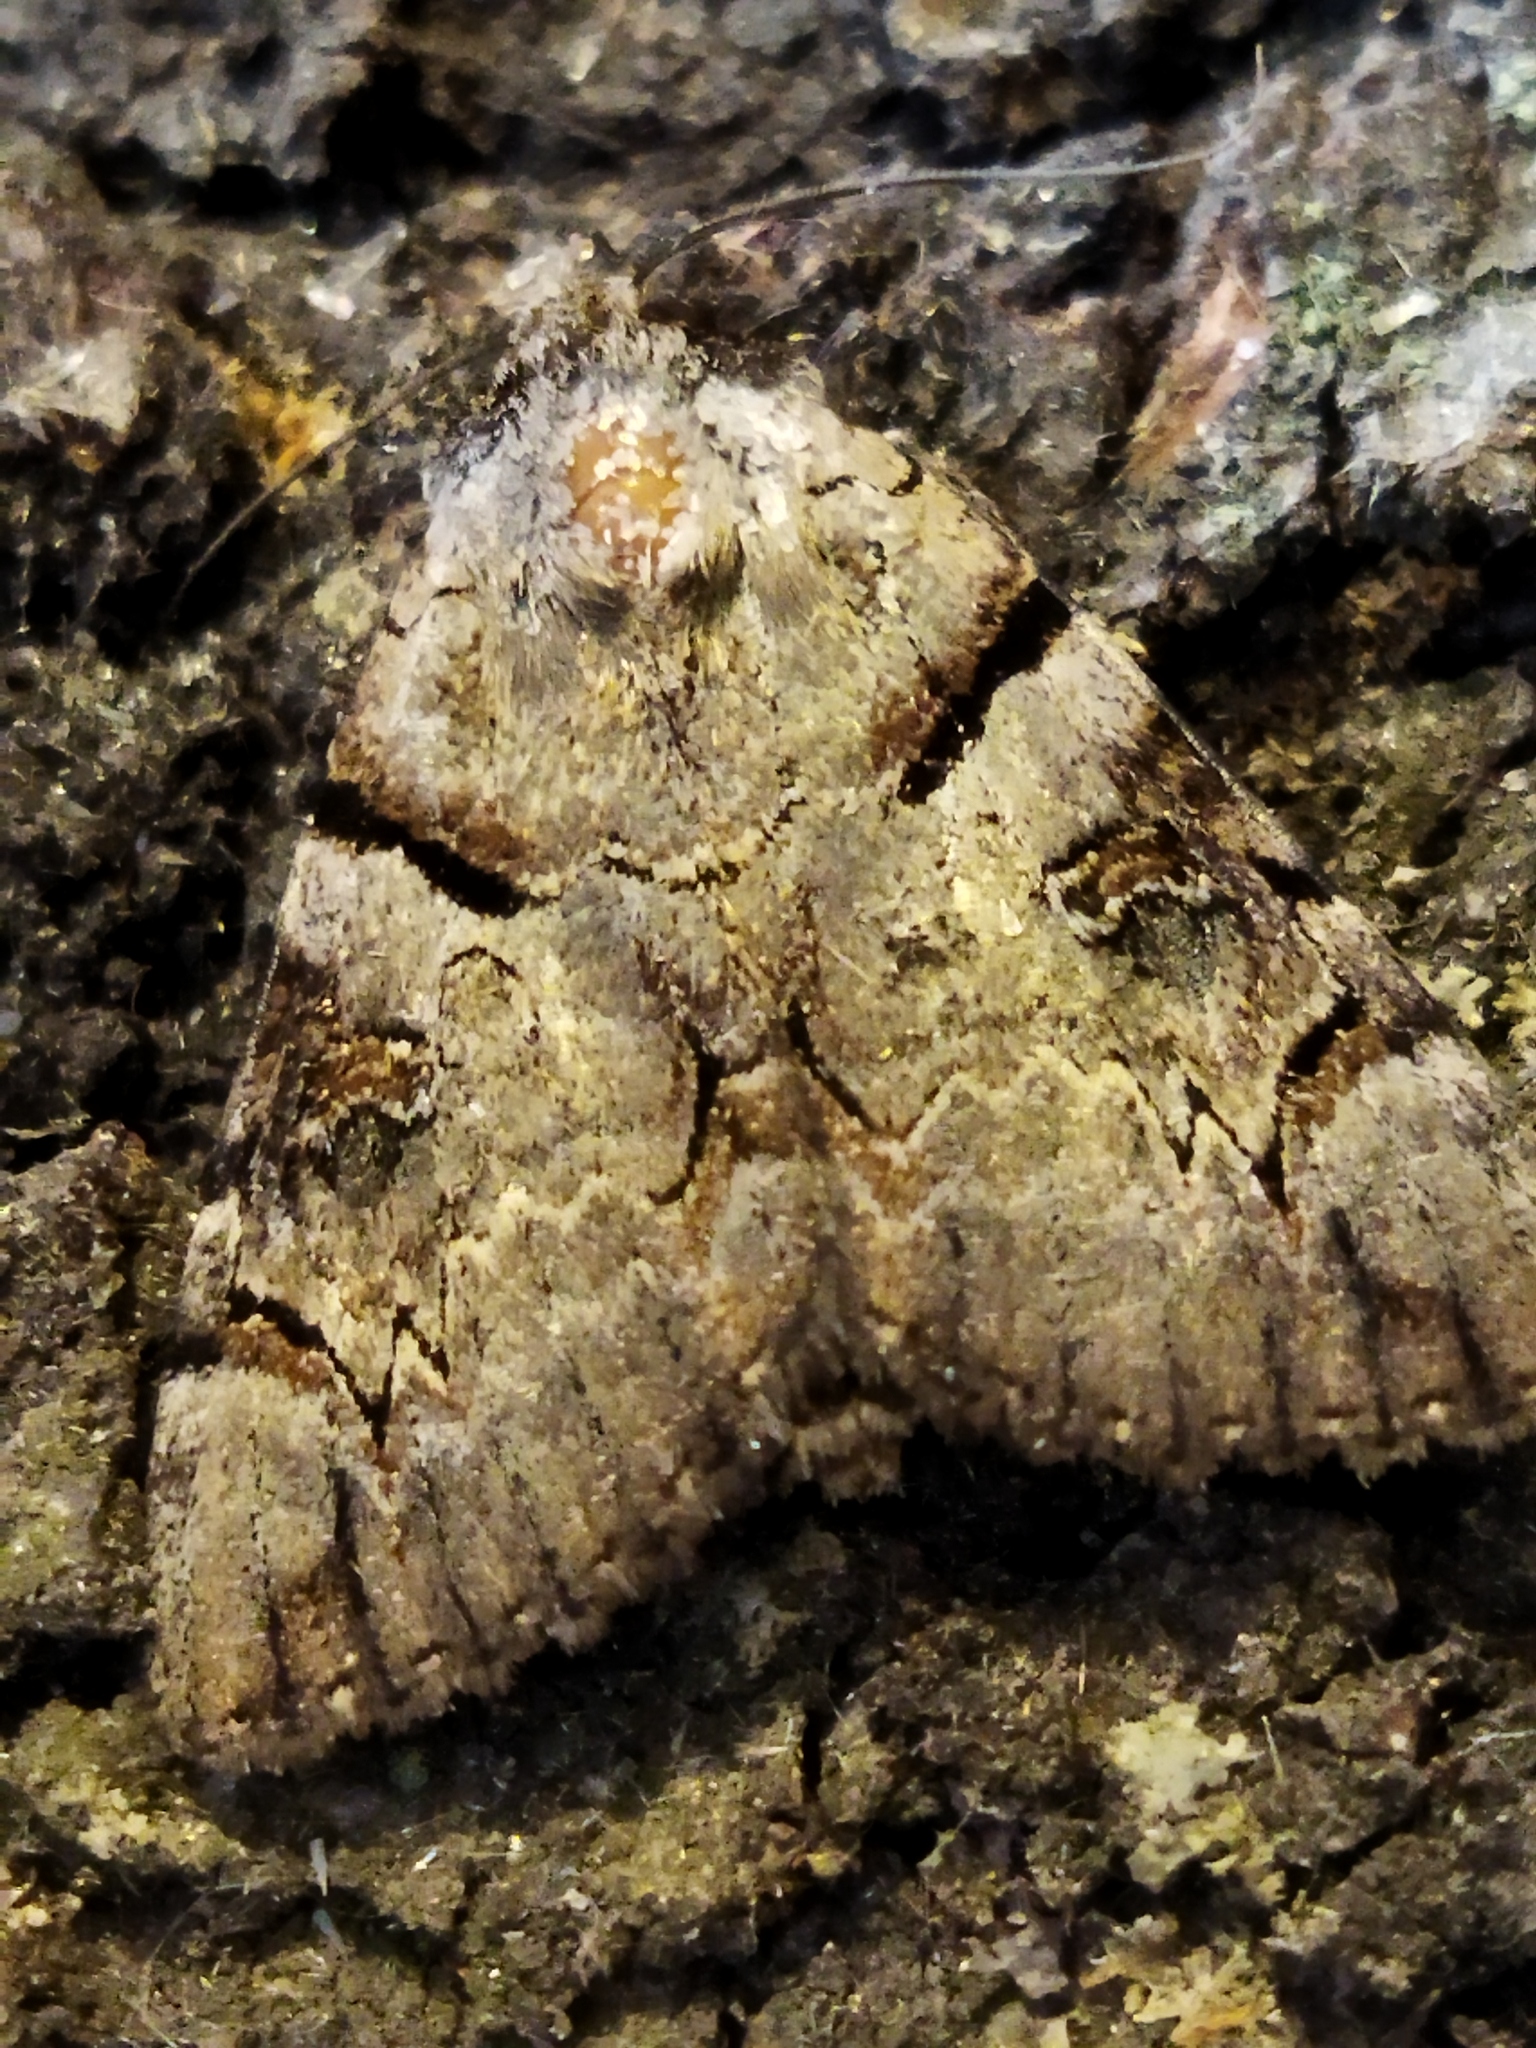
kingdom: Animalia
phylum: Arthropoda
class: Insecta
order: Lepidoptera
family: Erebidae
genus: Catocala
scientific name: Catocala hymenaea
